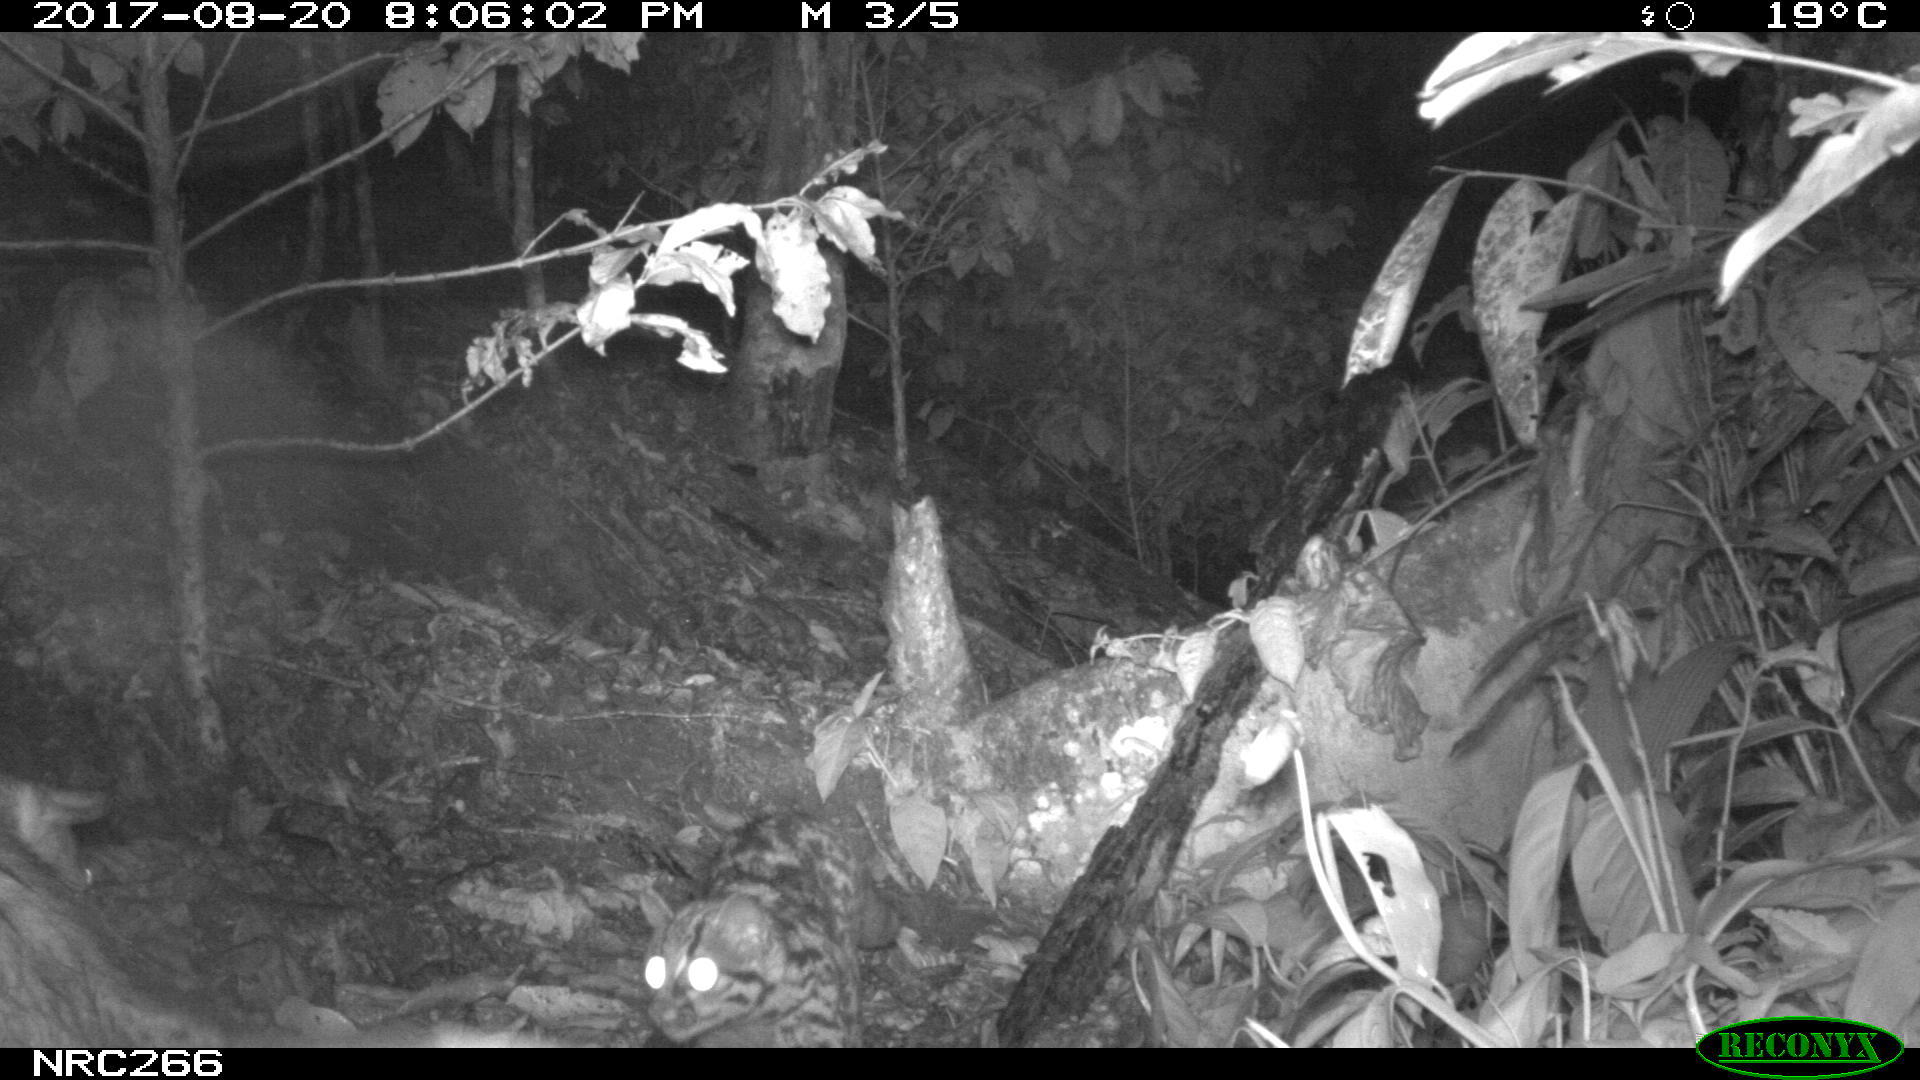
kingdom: Animalia
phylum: Chordata
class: Mammalia
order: Carnivora
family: Felidae
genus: Leopardus
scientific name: Leopardus tigrinus
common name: Oncilla
